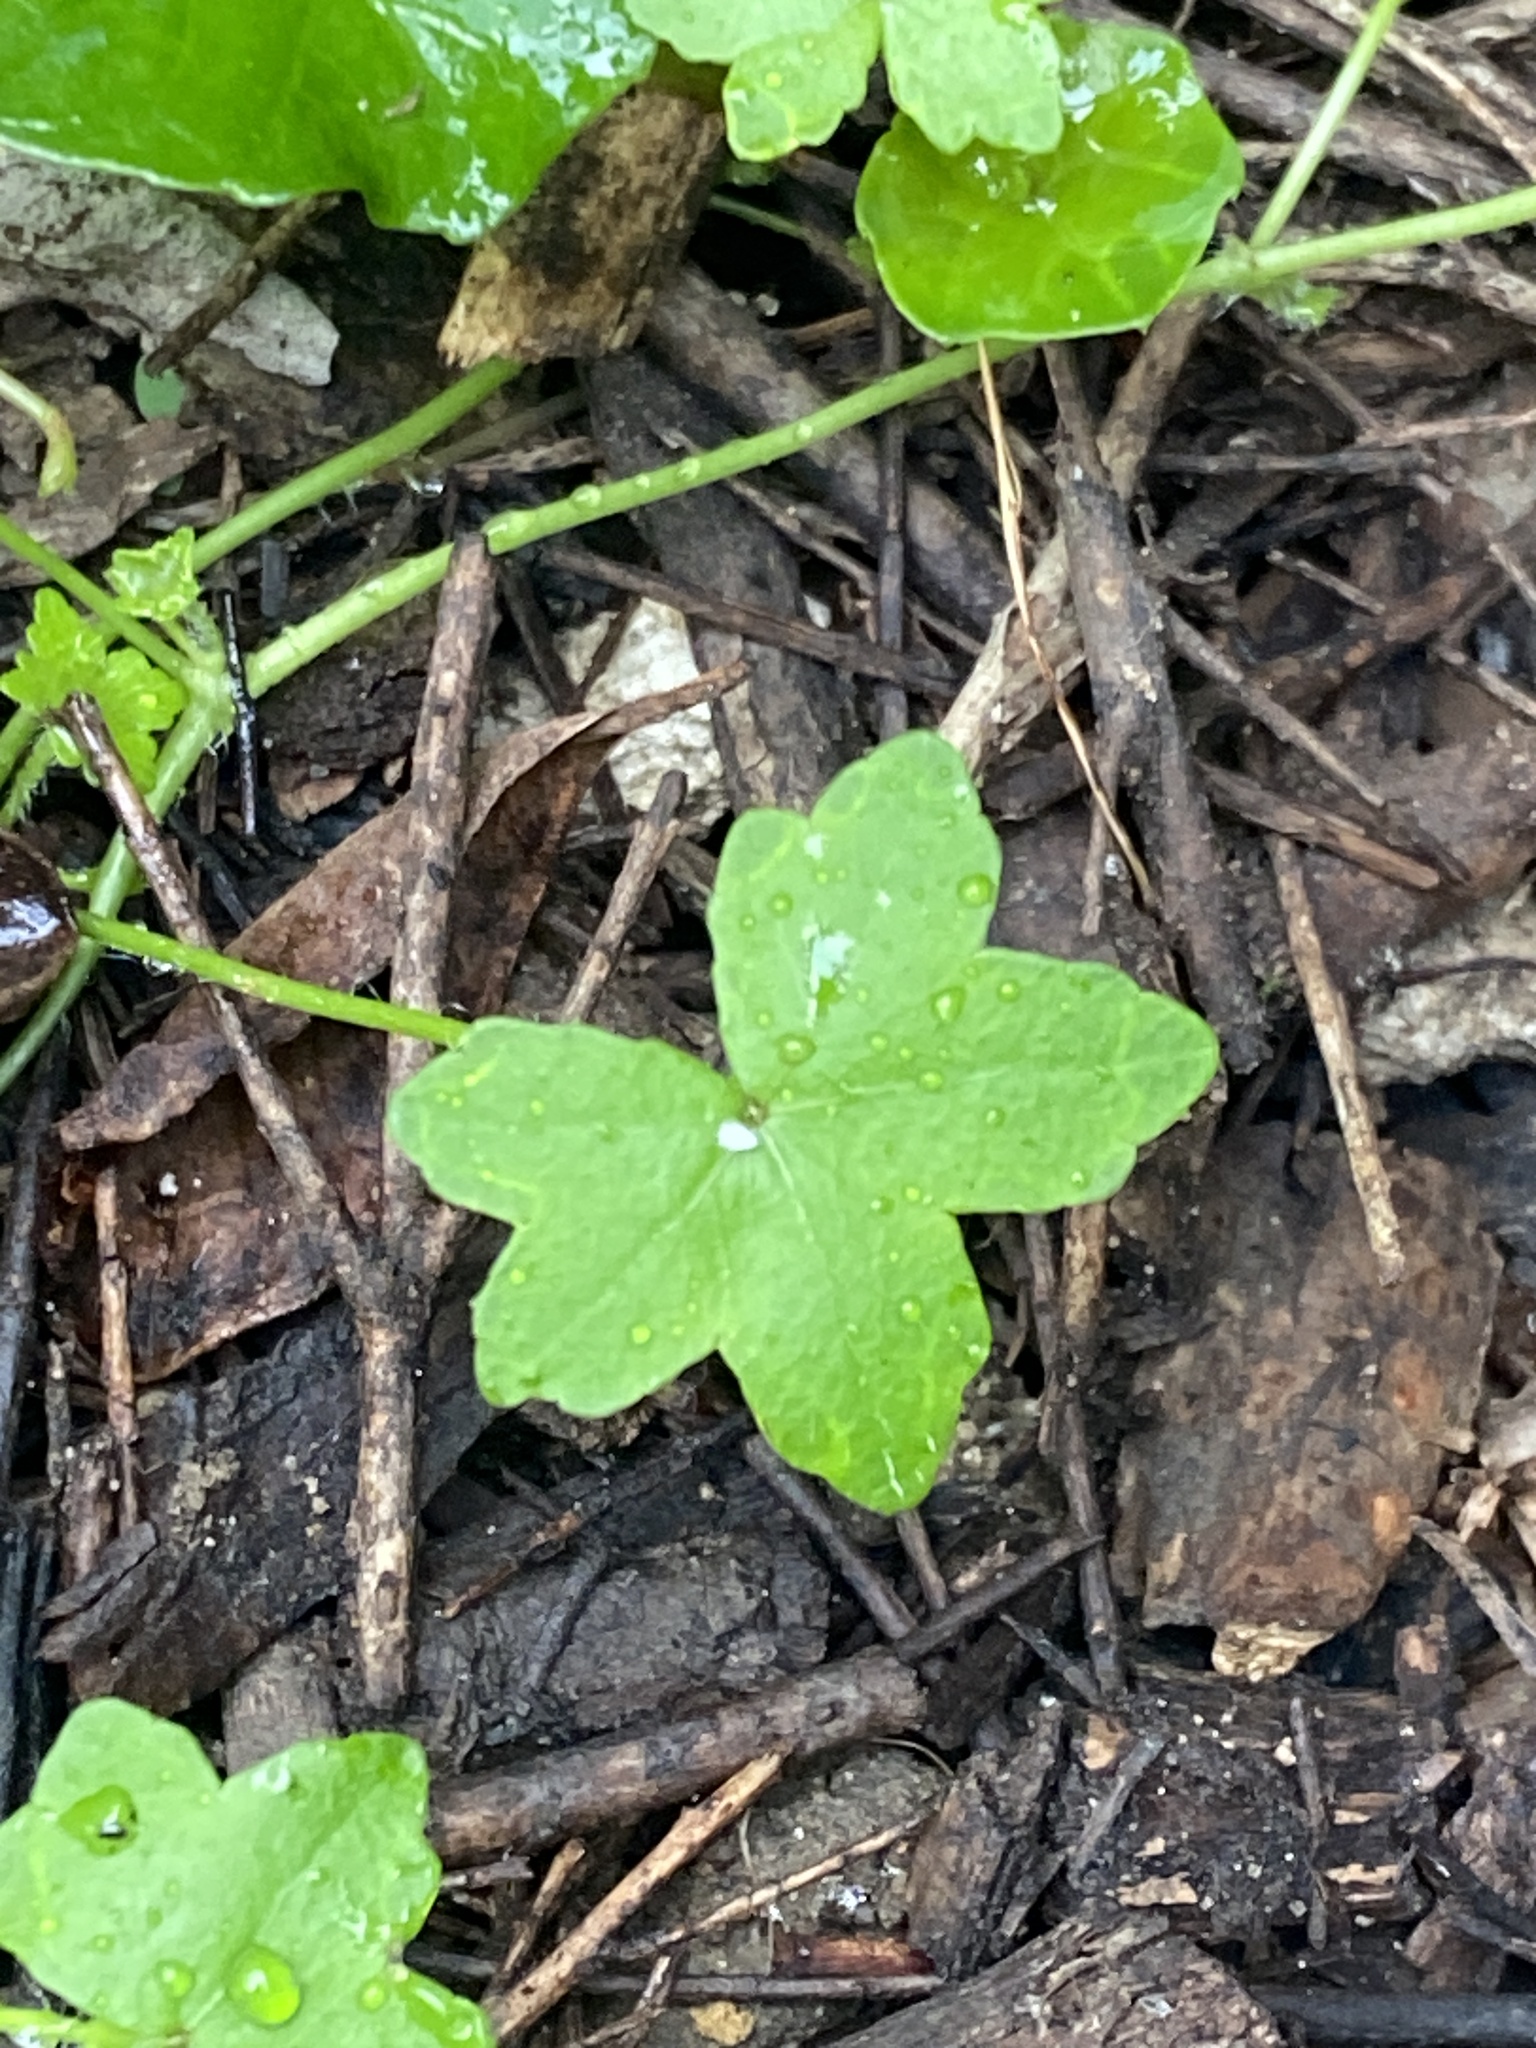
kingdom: Plantae
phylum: Tracheophyta
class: Magnoliopsida
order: Apiales
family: Araliaceae
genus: Hydrocotyle
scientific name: Hydrocotyle acutiloba
